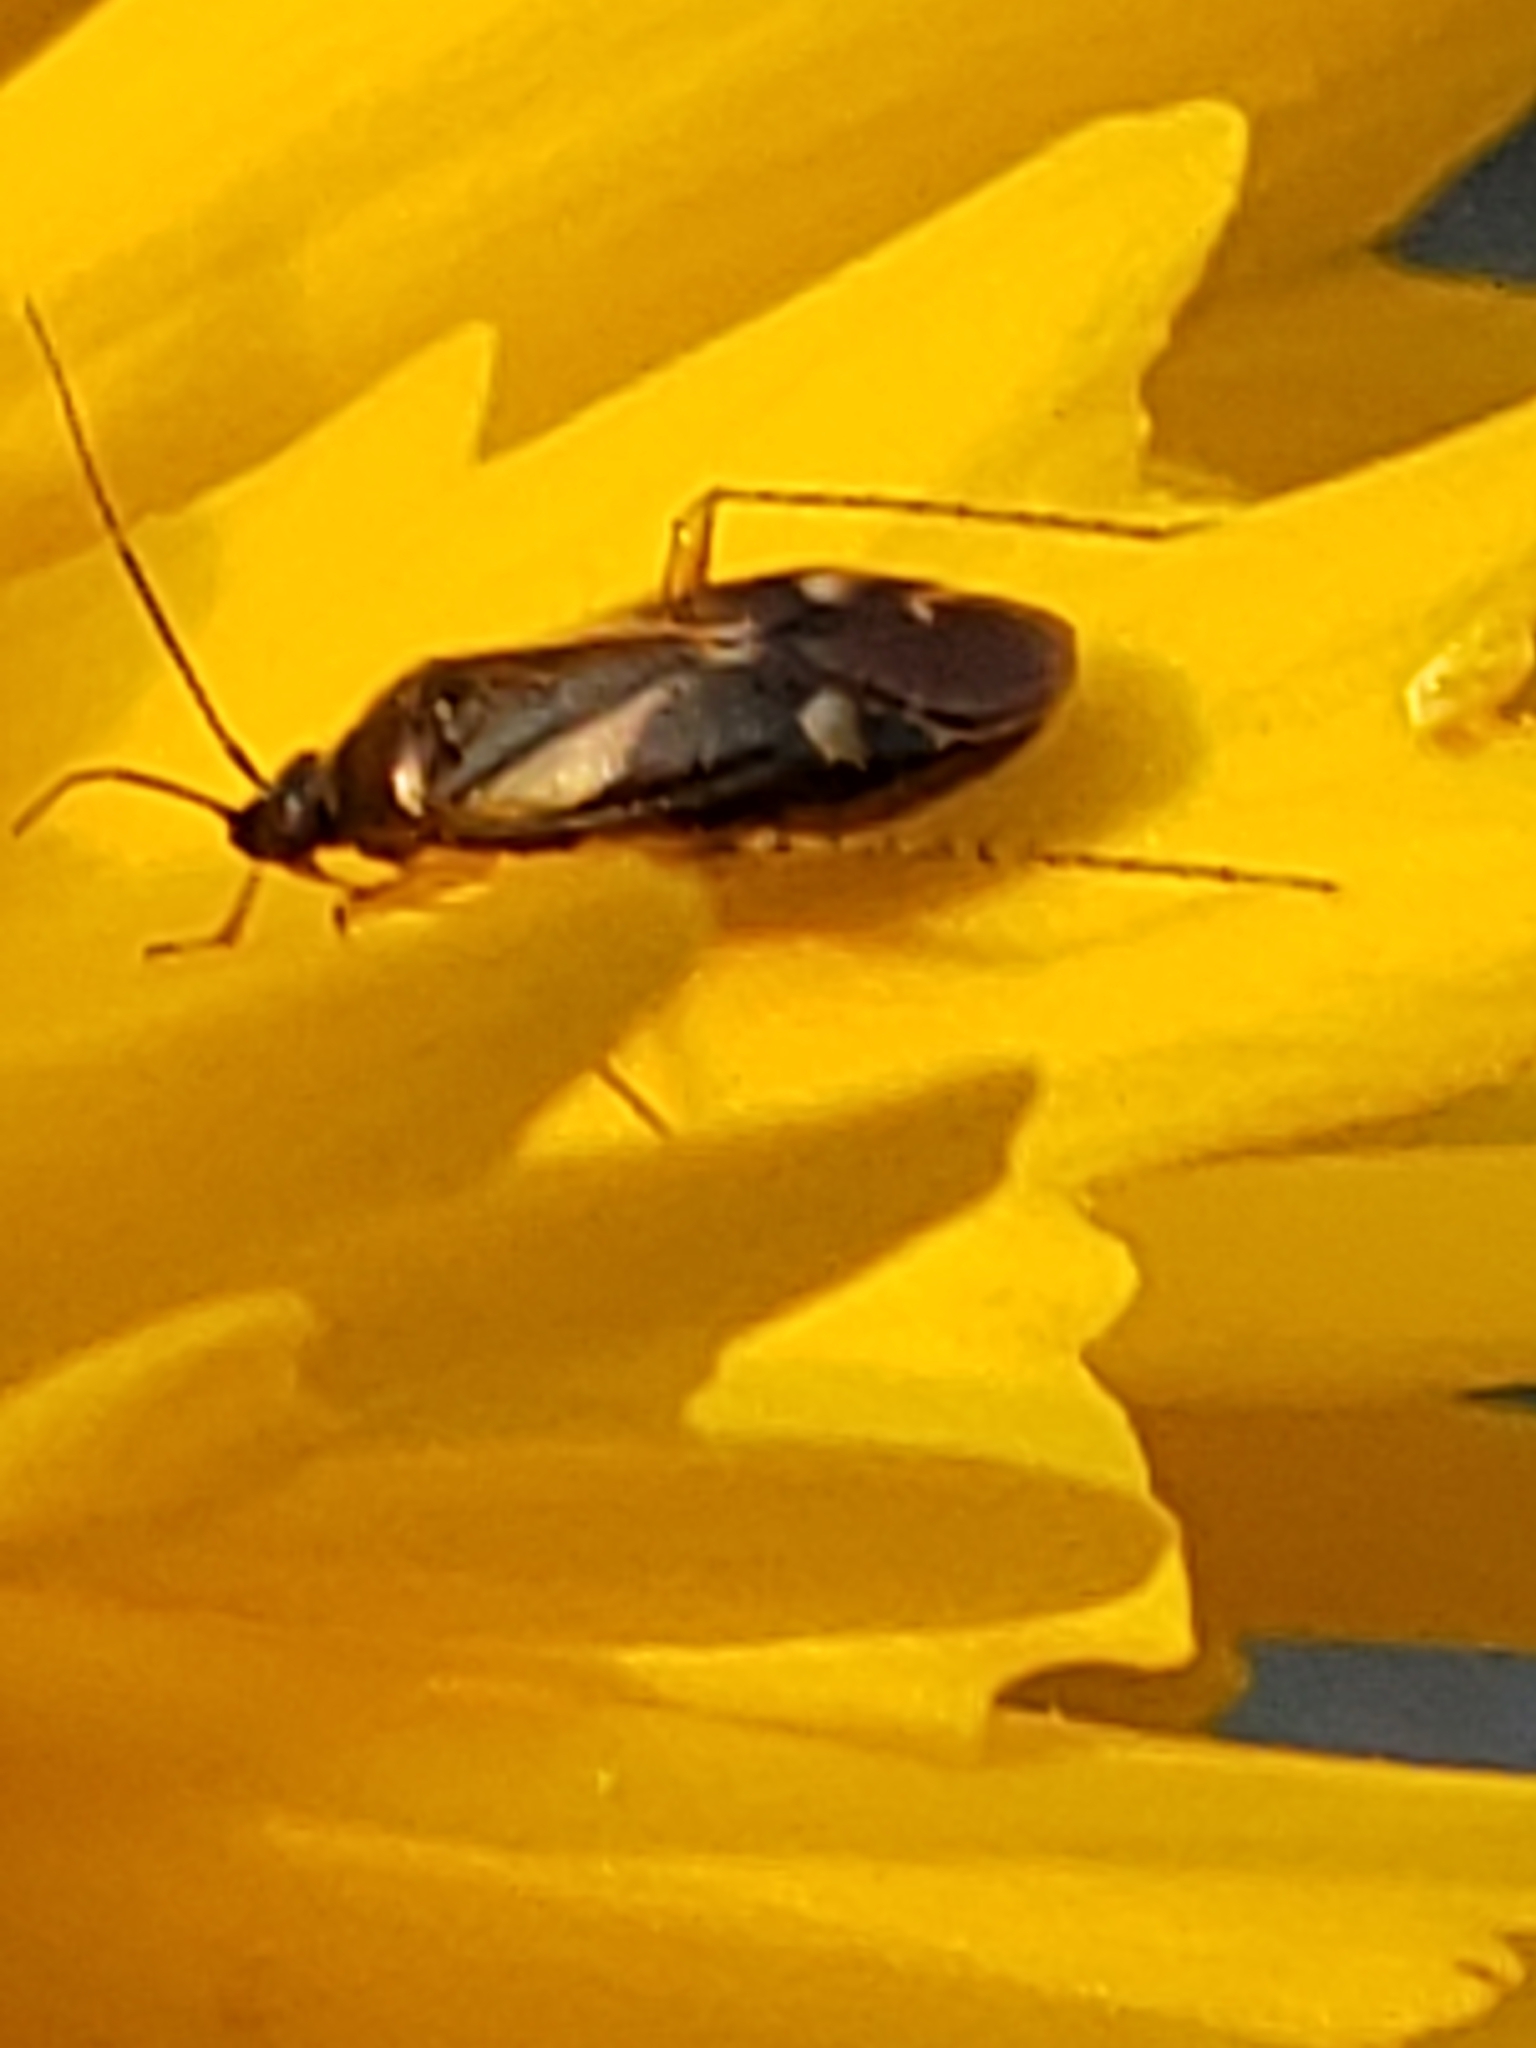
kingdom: Animalia
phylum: Arthropoda
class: Insecta
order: Hemiptera
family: Miridae
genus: Plagiognathus
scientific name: Plagiognathus obscurus
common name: Obscure plant bug
